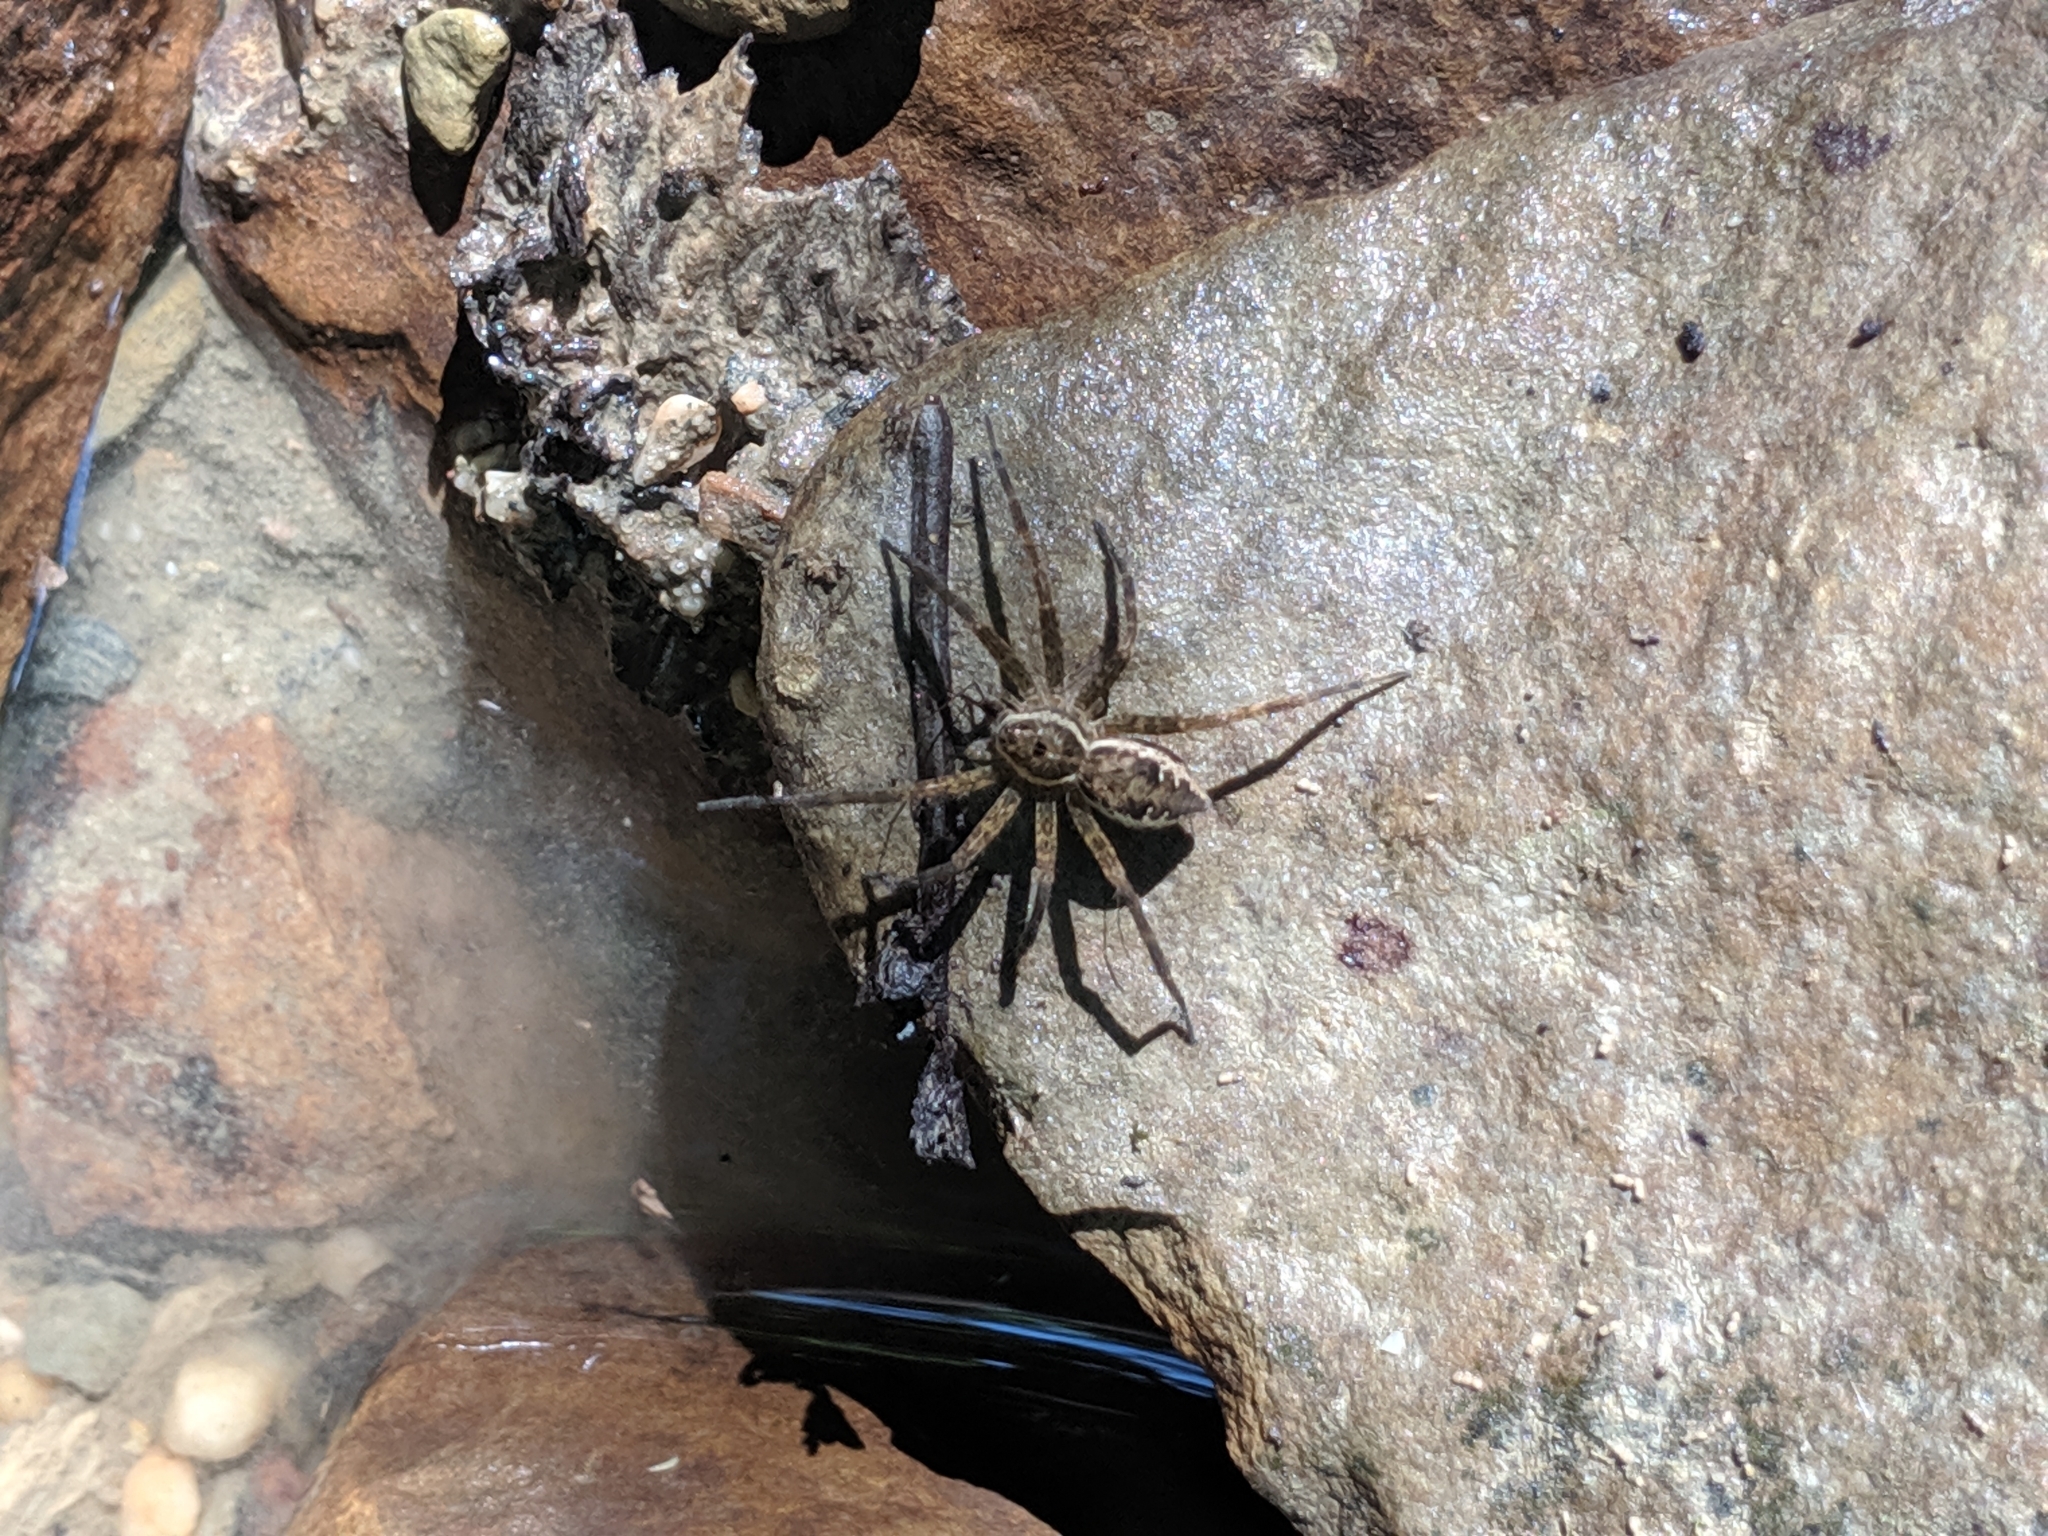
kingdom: Animalia
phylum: Arthropoda
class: Arachnida
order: Araneae
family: Pisauridae
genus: Dolomedes
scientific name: Dolomedes vittatus
